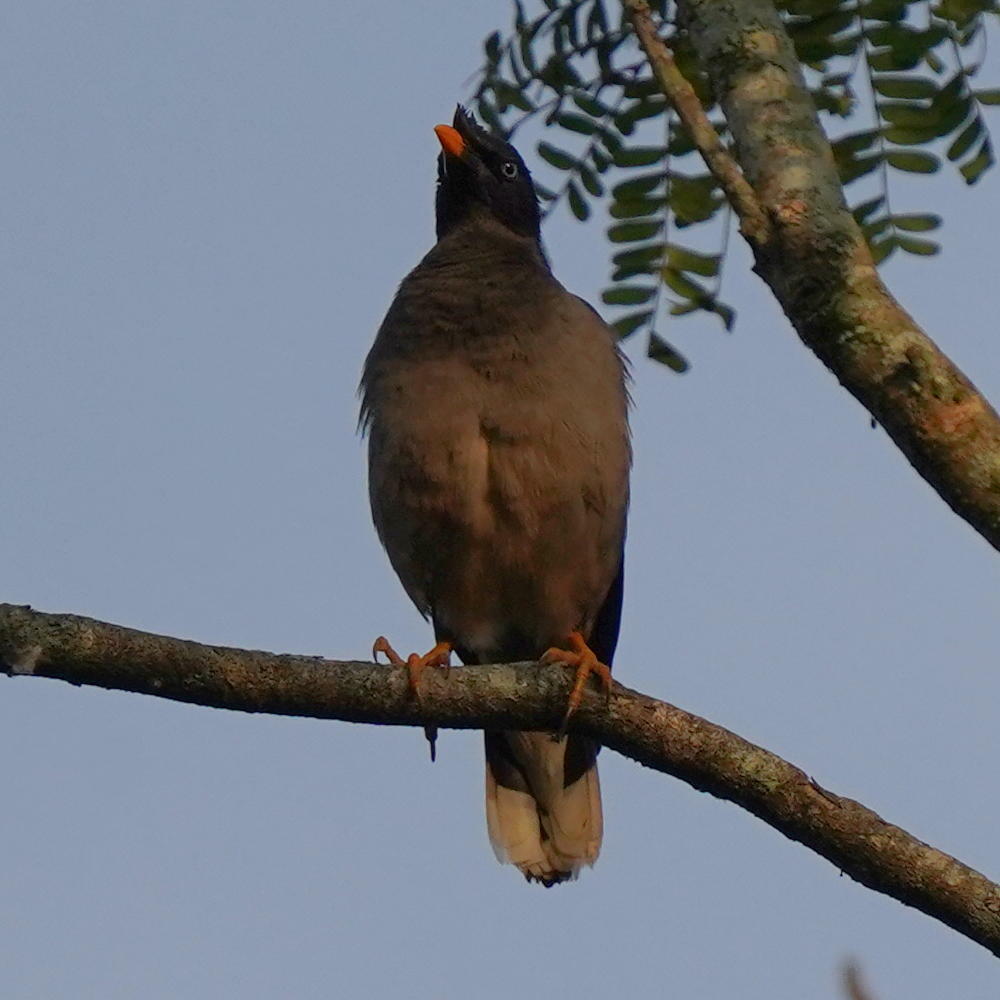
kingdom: Animalia
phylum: Chordata
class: Aves
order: Passeriformes
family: Sturnidae
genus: Acridotheres
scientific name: Acridotheres fuscus
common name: Jungle myna
